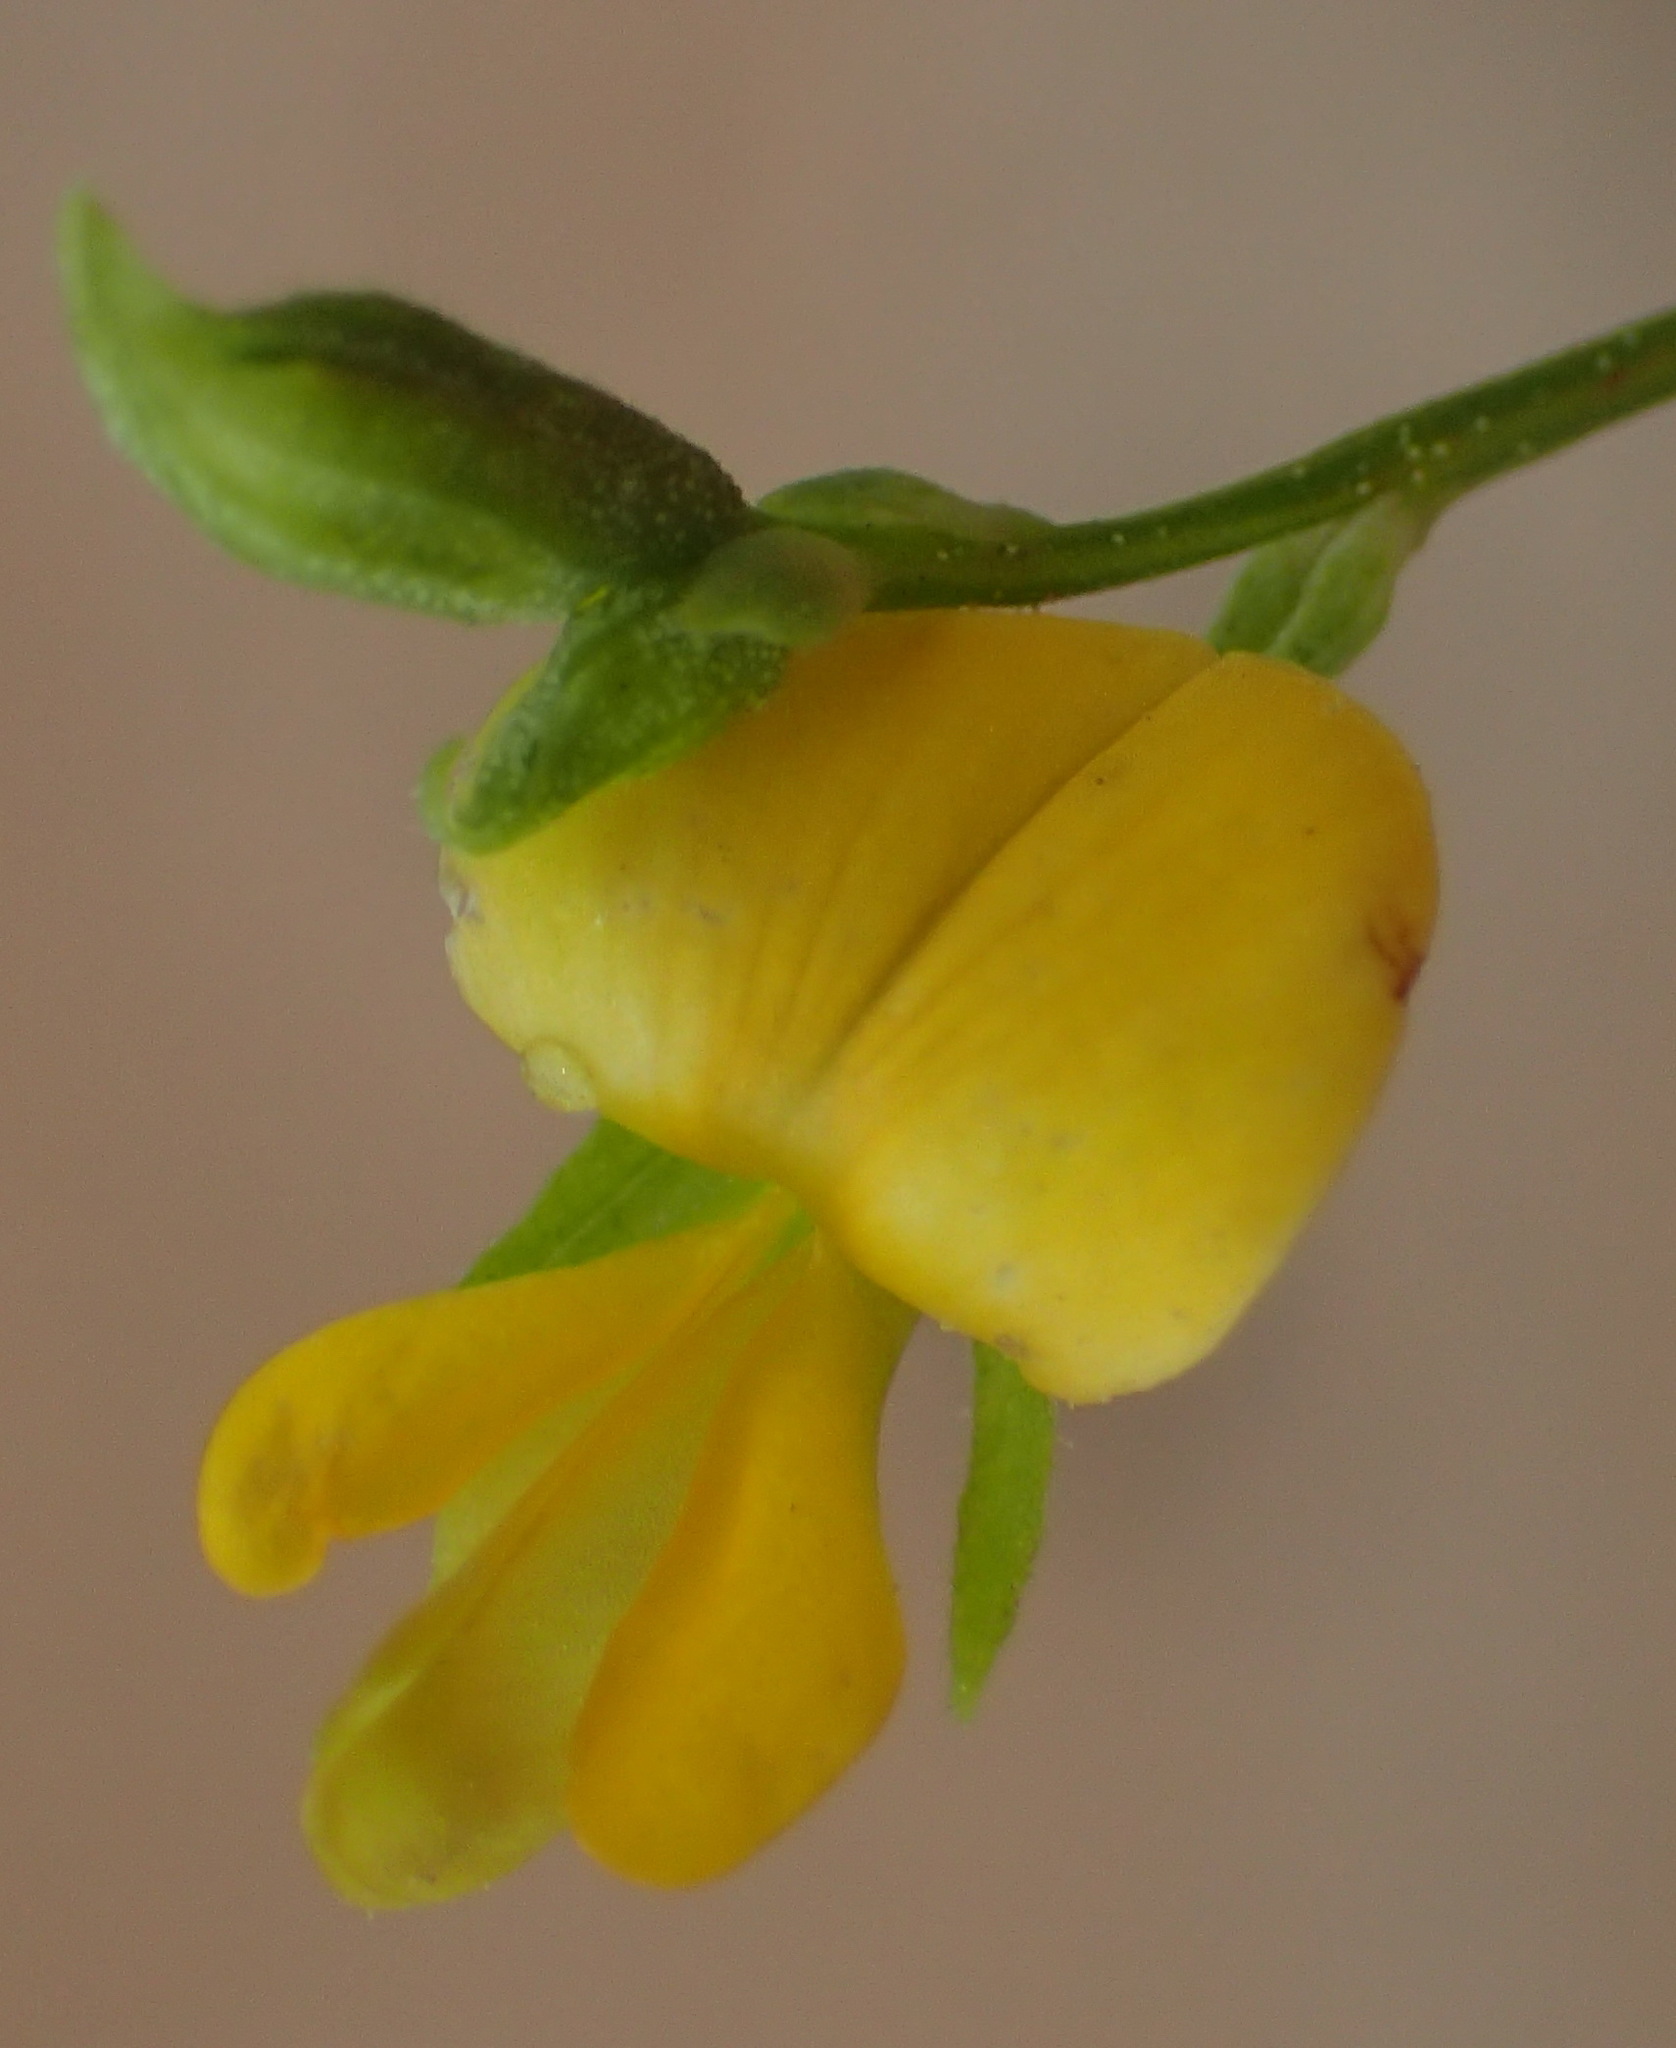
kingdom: Plantae
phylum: Tracheophyta
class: Magnoliopsida
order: Fabales
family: Fabaceae
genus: Rhynchosia
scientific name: Rhynchosia leucoscias
